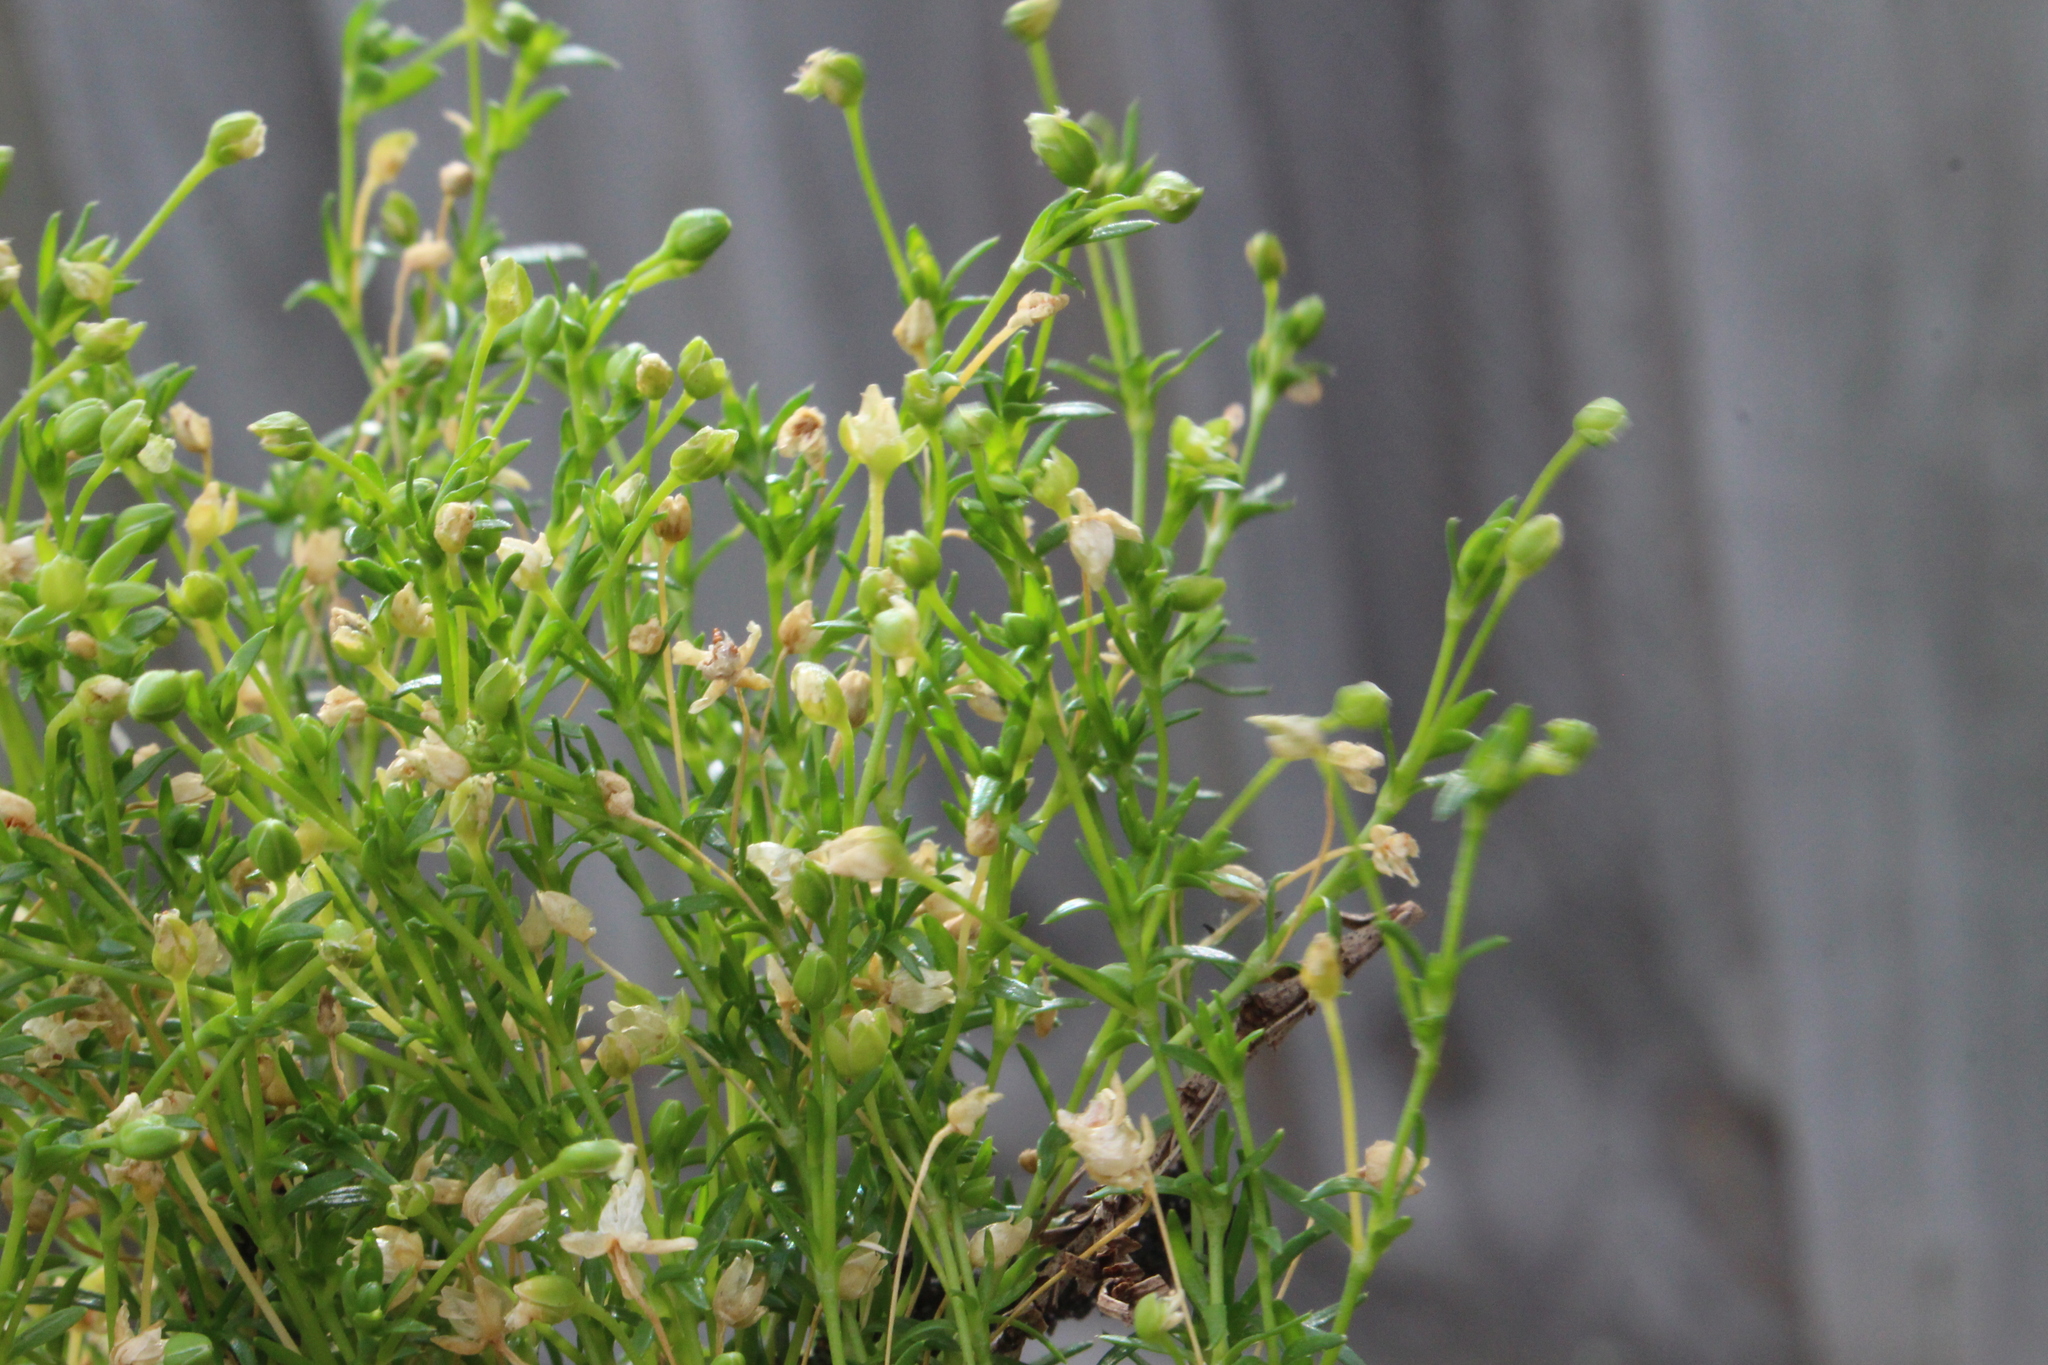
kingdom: Plantae
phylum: Tracheophyta
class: Magnoliopsida
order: Caryophyllales
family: Caryophyllaceae
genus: Sagina
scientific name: Sagina procumbens
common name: Procumbent pearlwort
